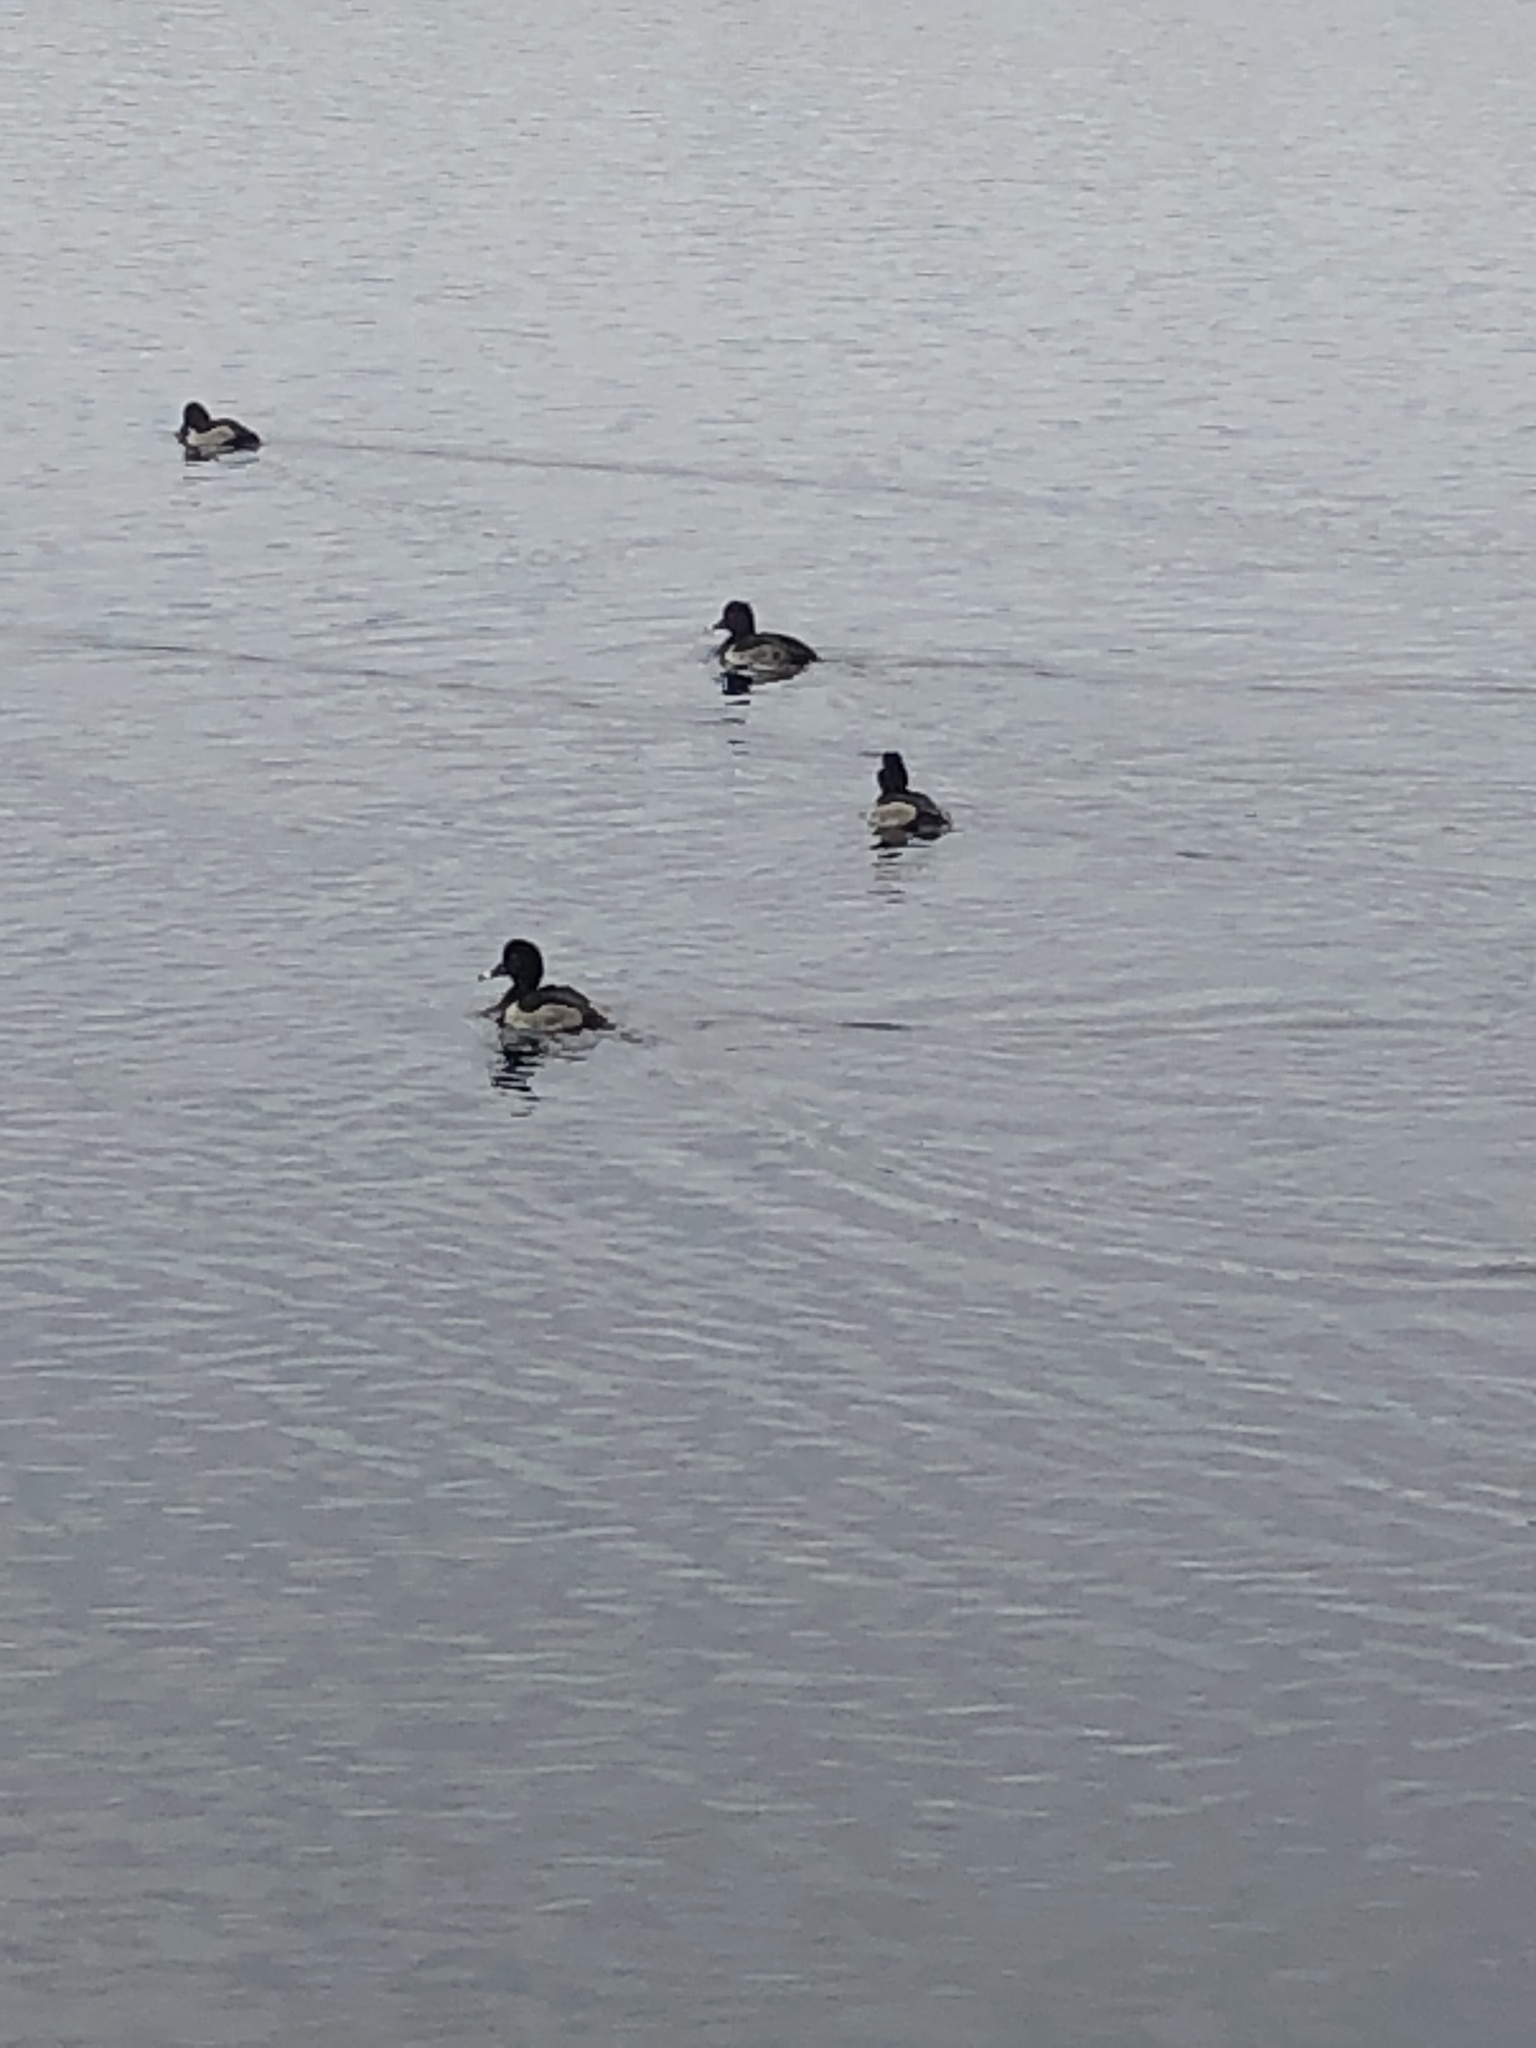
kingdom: Animalia
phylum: Chordata
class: Aves
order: Anseriformes
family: Anatidae
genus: Aythya
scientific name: Aythya collaris
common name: Ring-necked duck
